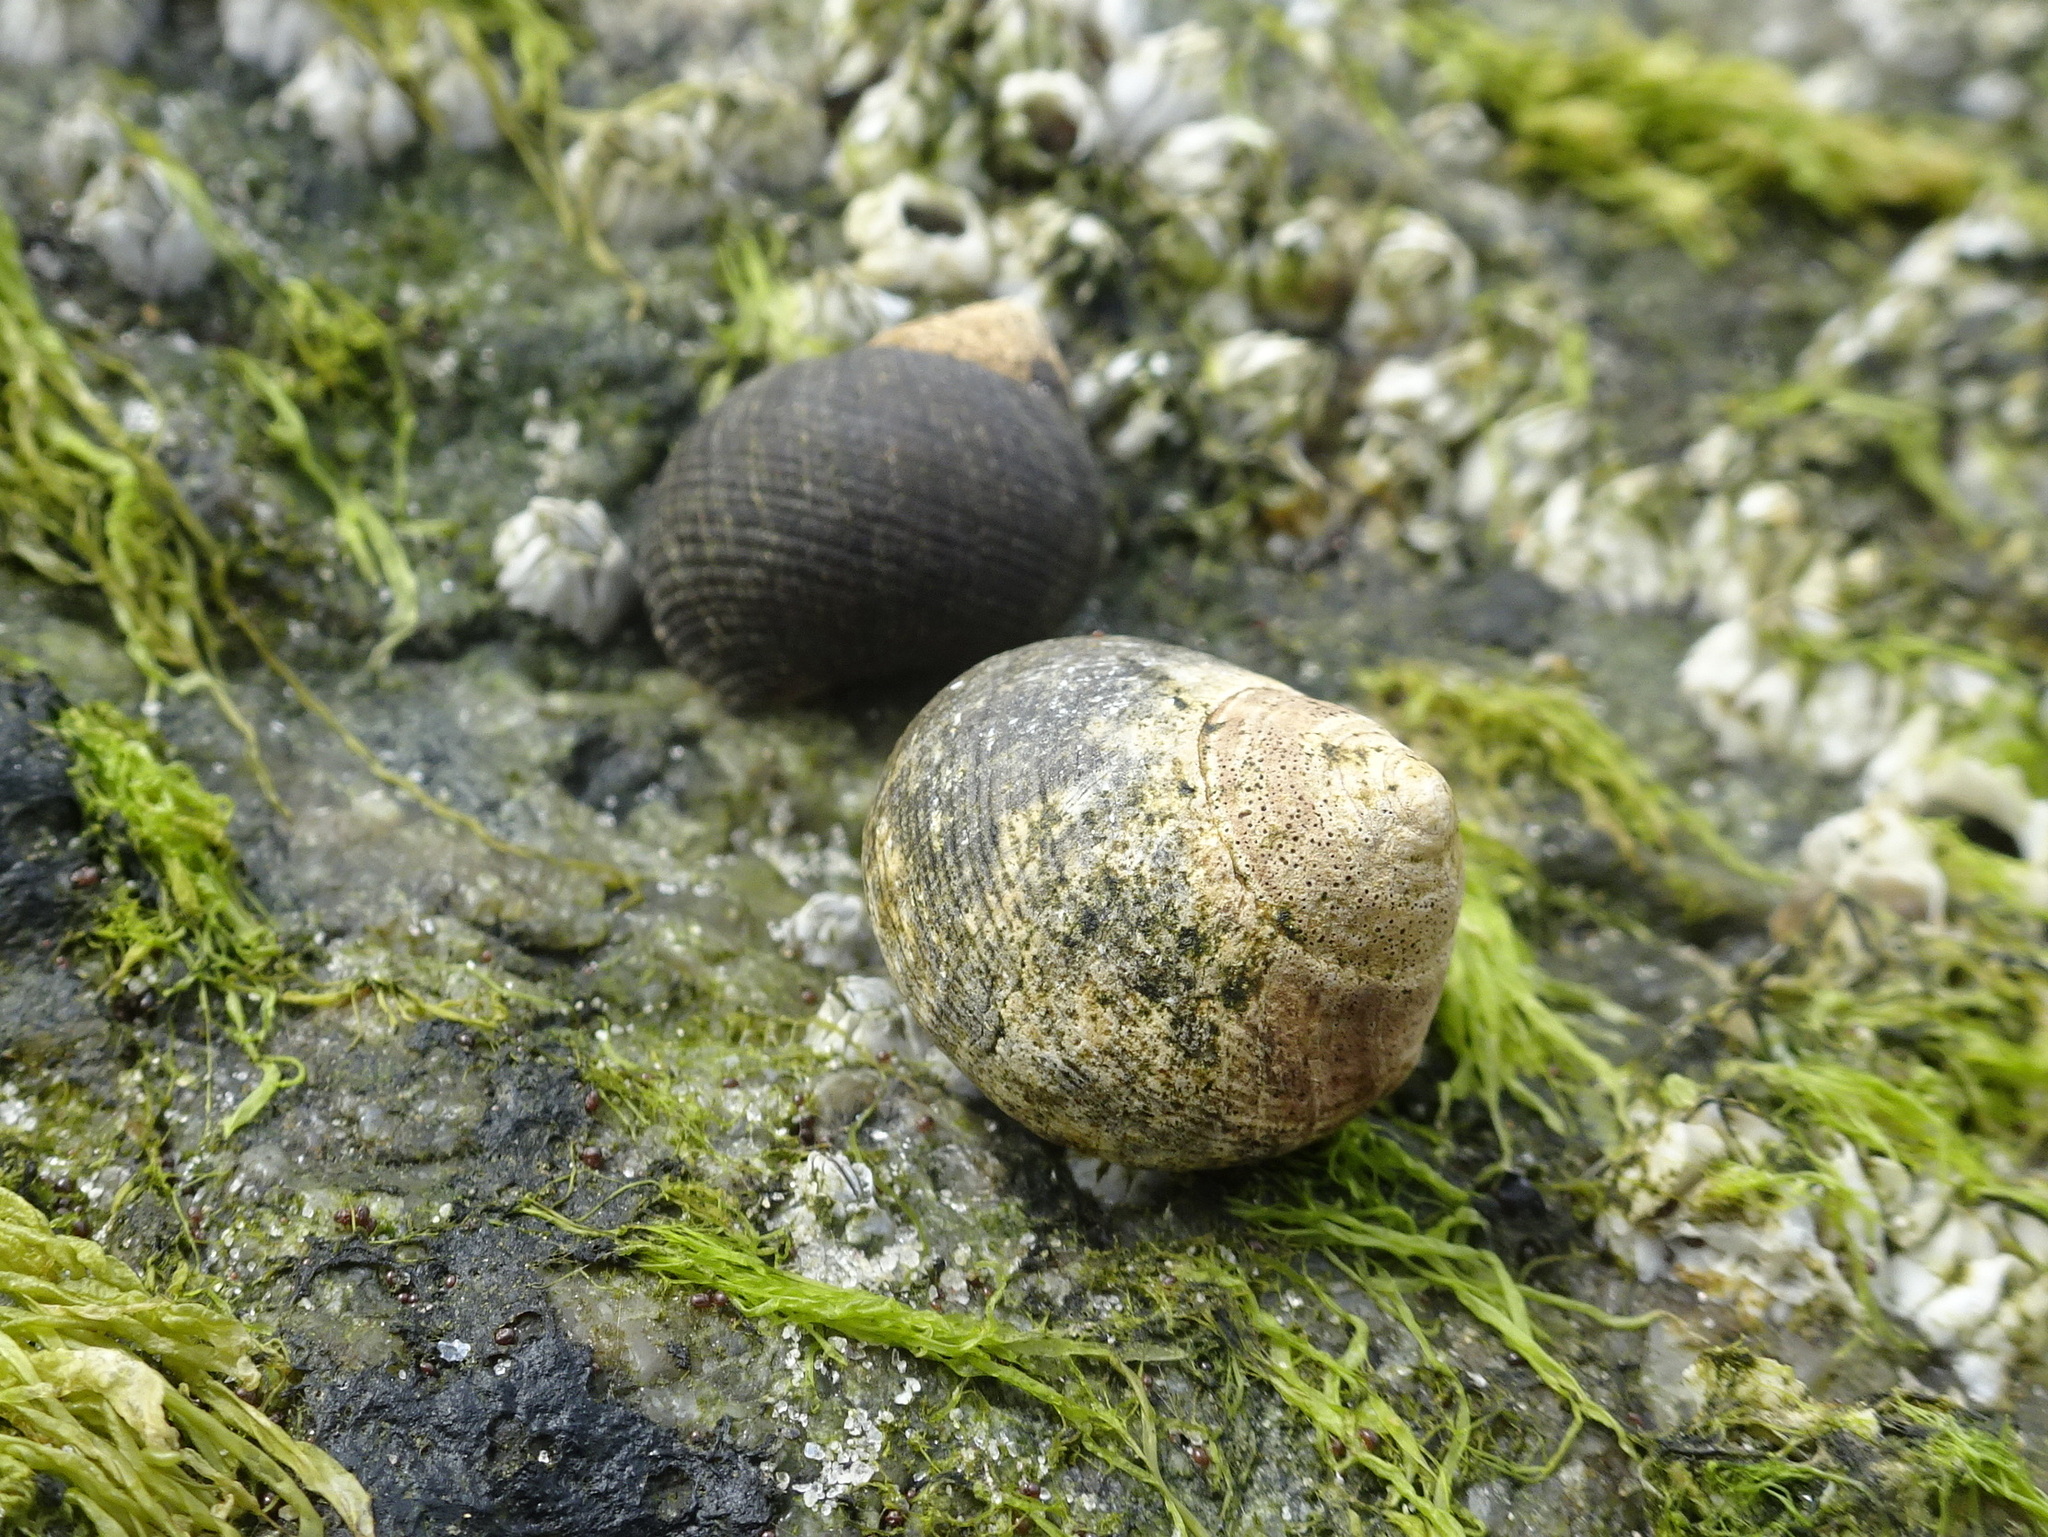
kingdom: Animalia
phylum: Mollusca
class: Gastropoda
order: Littorinimorpha
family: Littorinidae
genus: Littorina
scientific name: Littorina littorea
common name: Common periwinkle
